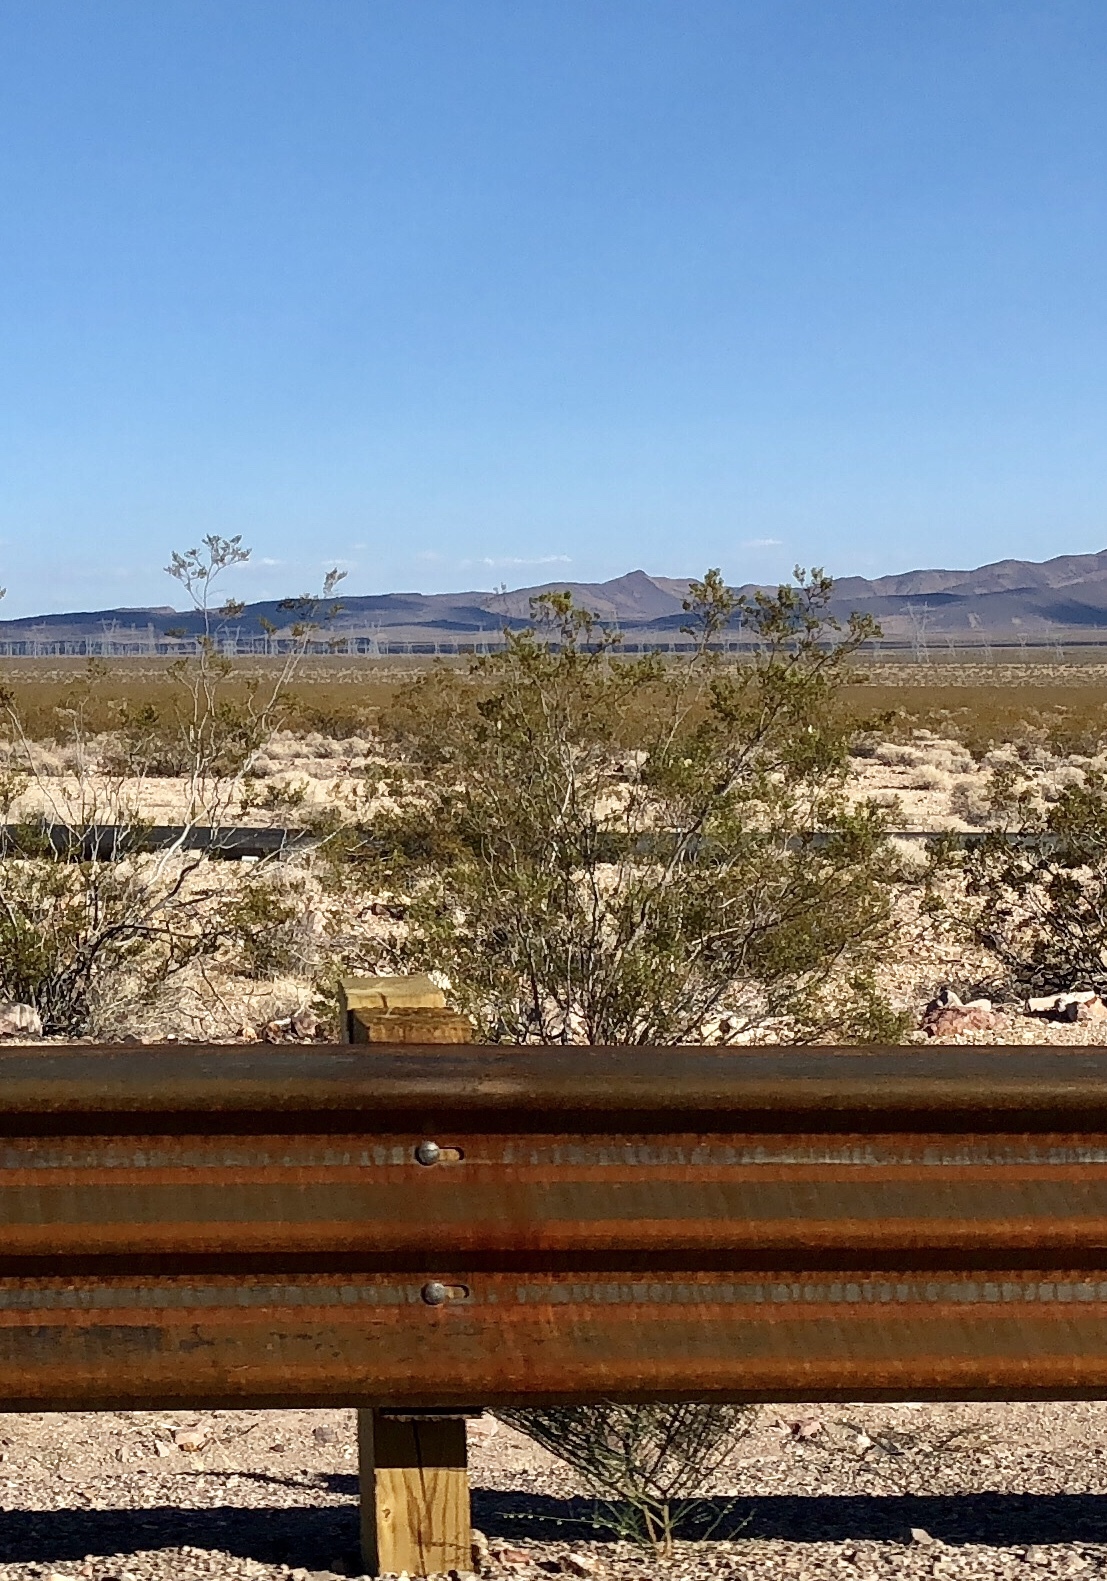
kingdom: Plantae
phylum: Tracheophyta
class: Magnoliopsida
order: Zygophyllales
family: Zygophyllaceae
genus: Larrea
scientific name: Larrea tridentata
